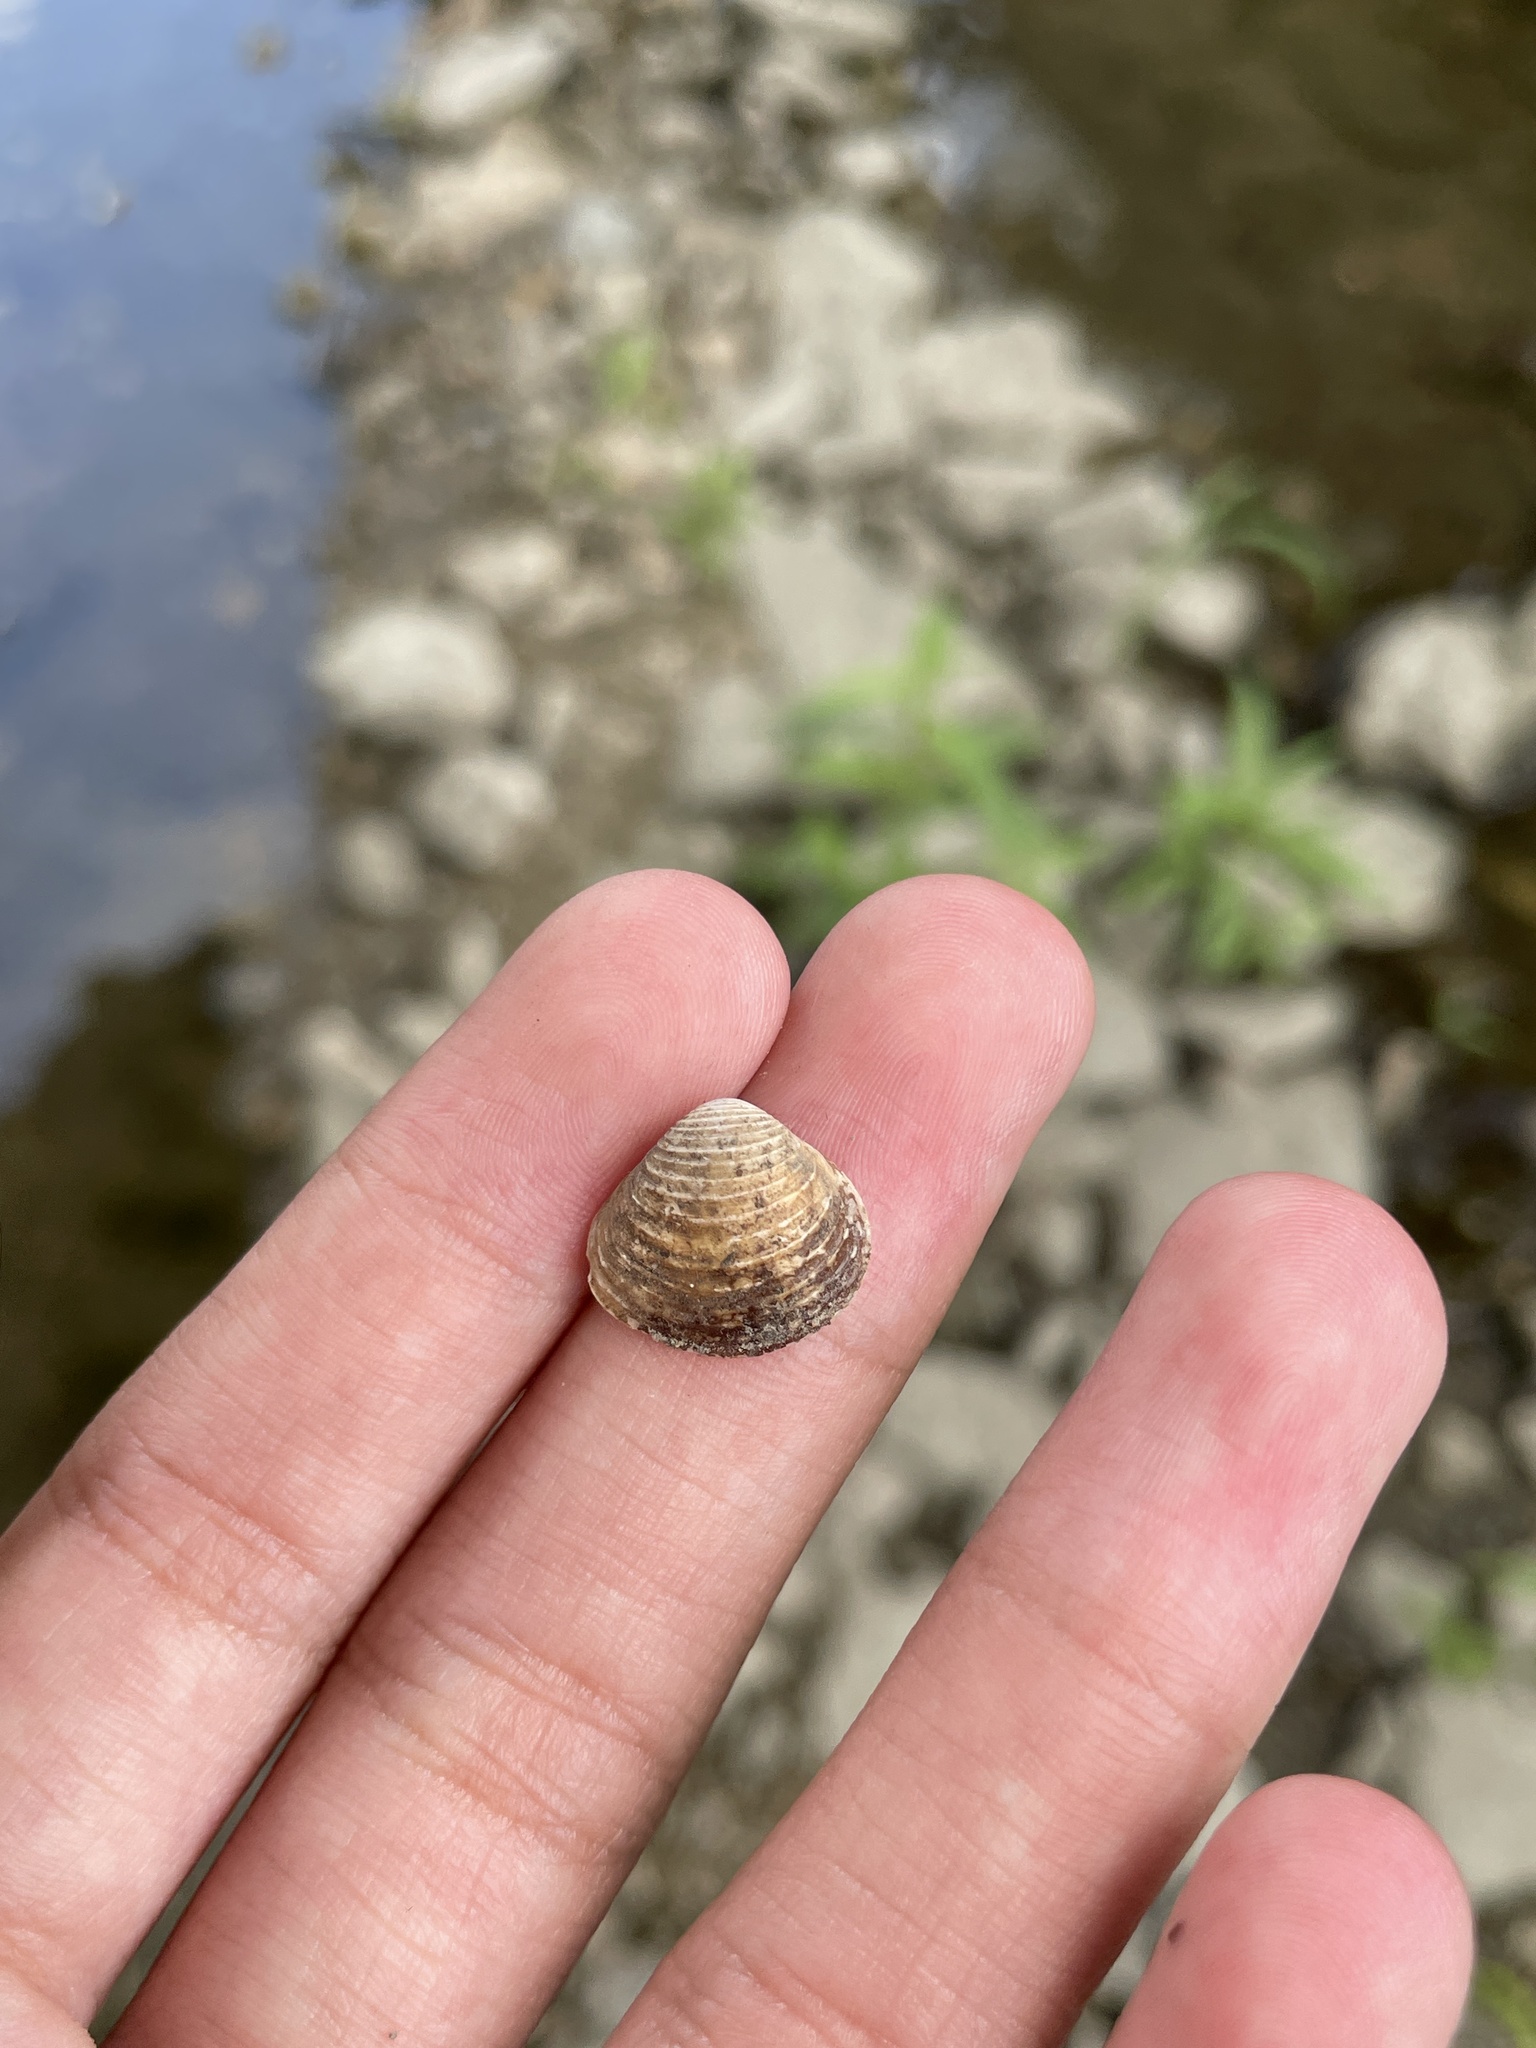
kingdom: Animalia
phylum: Mollusca
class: Bivalvia
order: Venerida
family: Cyrenidae
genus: Corbicula
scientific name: Corbicula fluminea
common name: Asian clam
